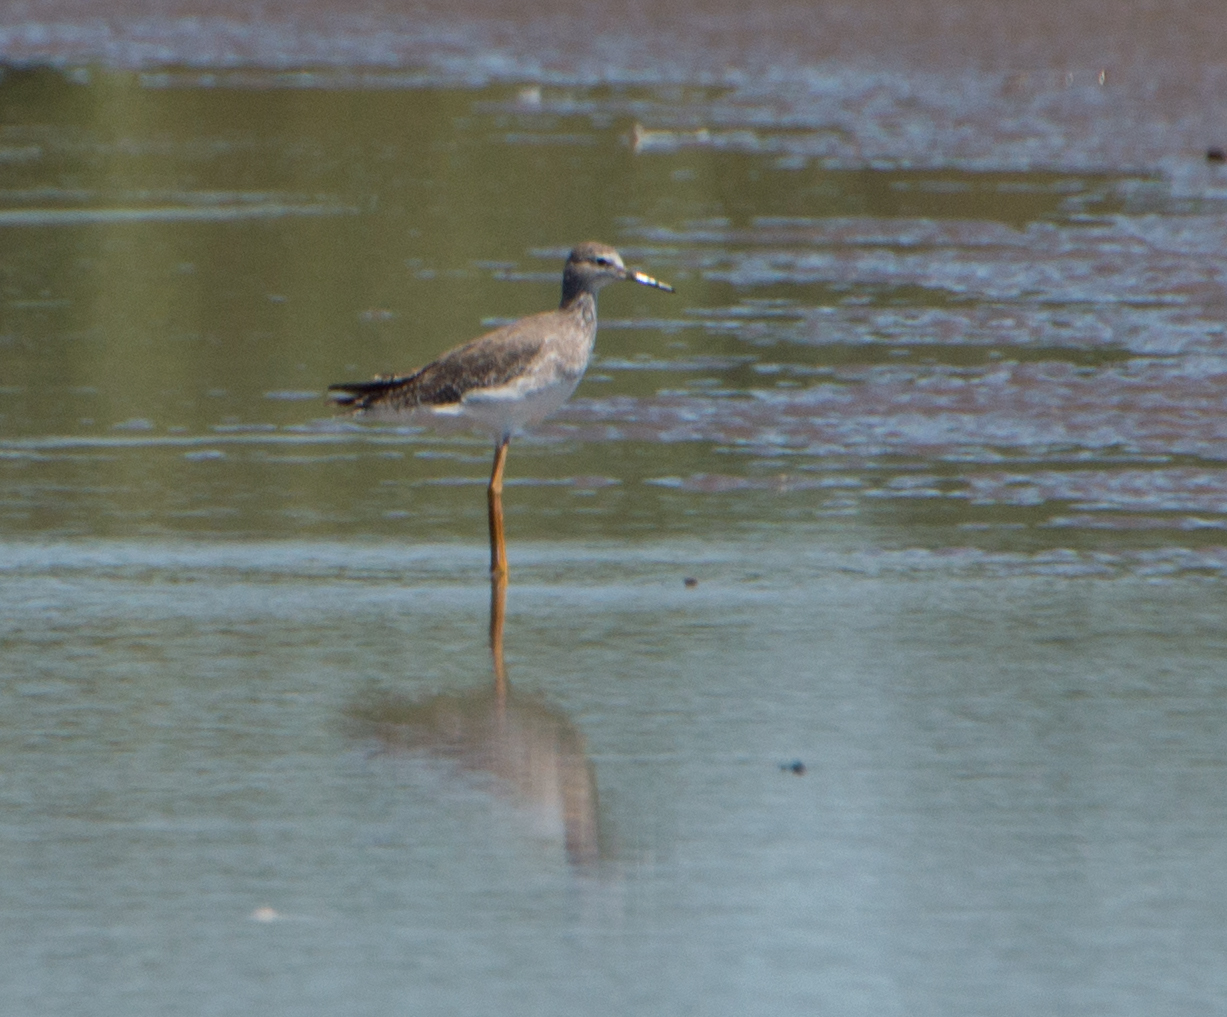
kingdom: Animalia
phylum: Chordata
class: Aves
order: Charadriiformes
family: Scolopacidae
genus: Tringa
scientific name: Tringa flavipes
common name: Lesser yellowlegs
